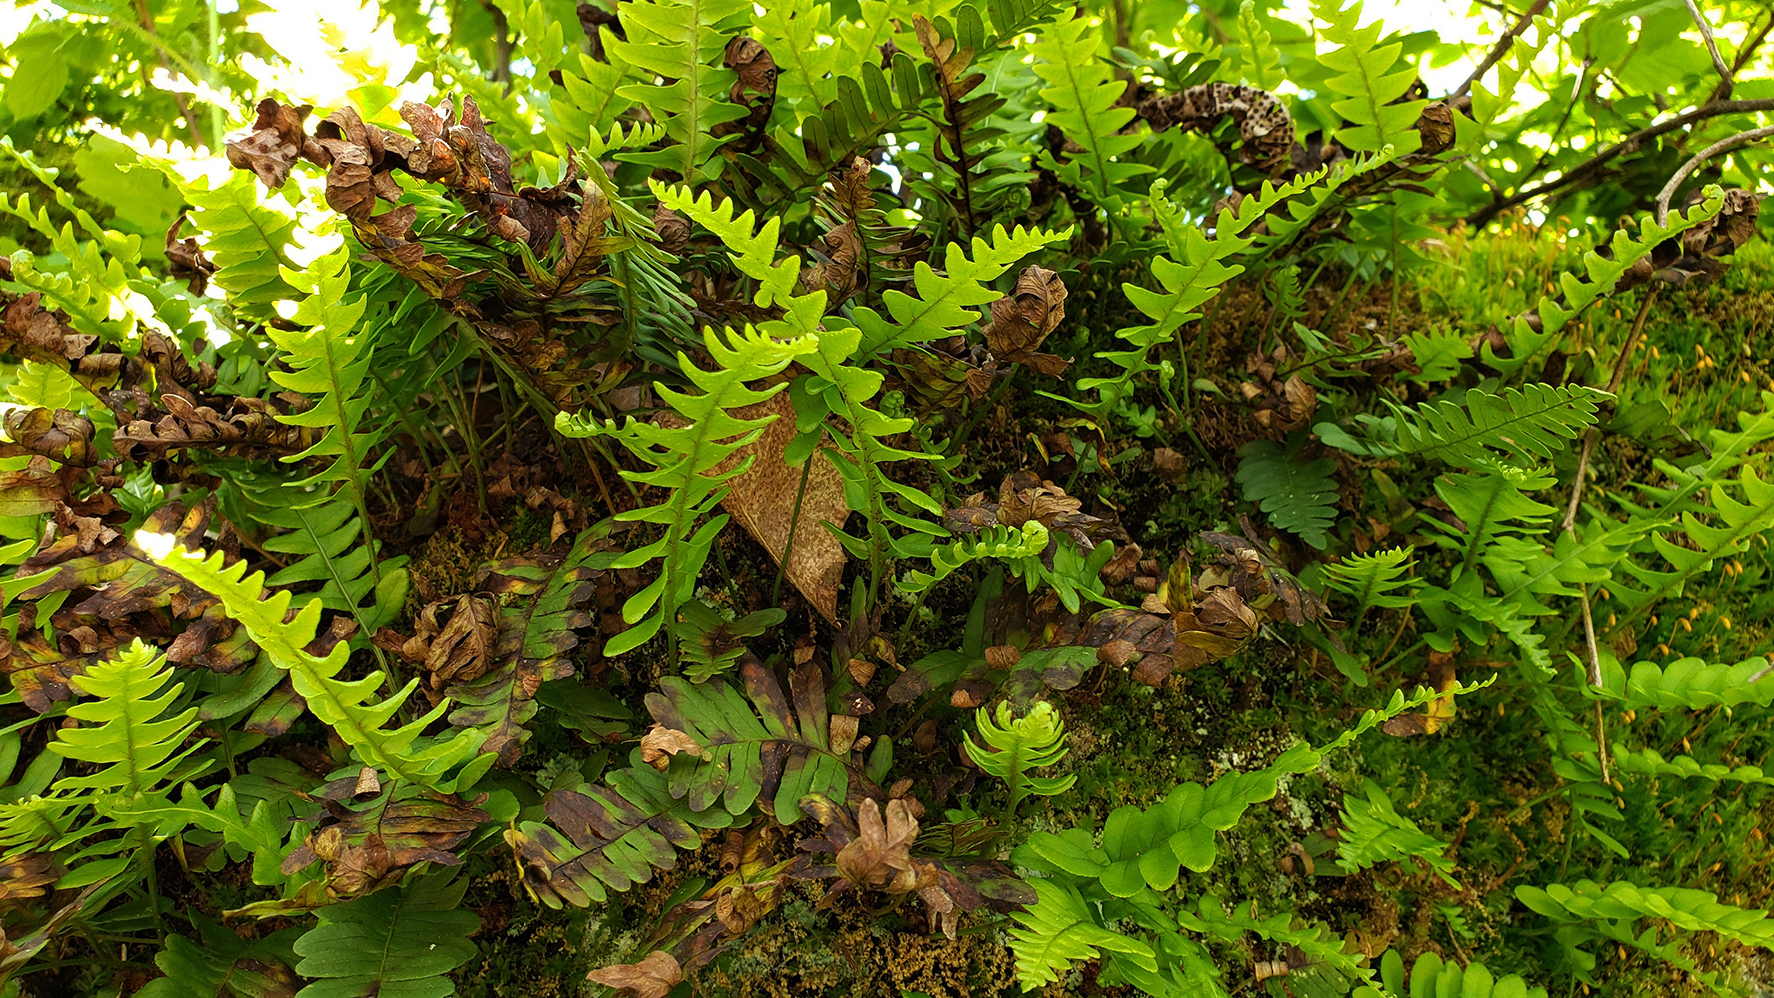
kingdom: Plantae
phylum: Tracheophyta
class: Polypodiopsida
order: Polypodiales
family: Polypodiaceae
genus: Polypodium
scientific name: Polypodium virginianum
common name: American wall fern
